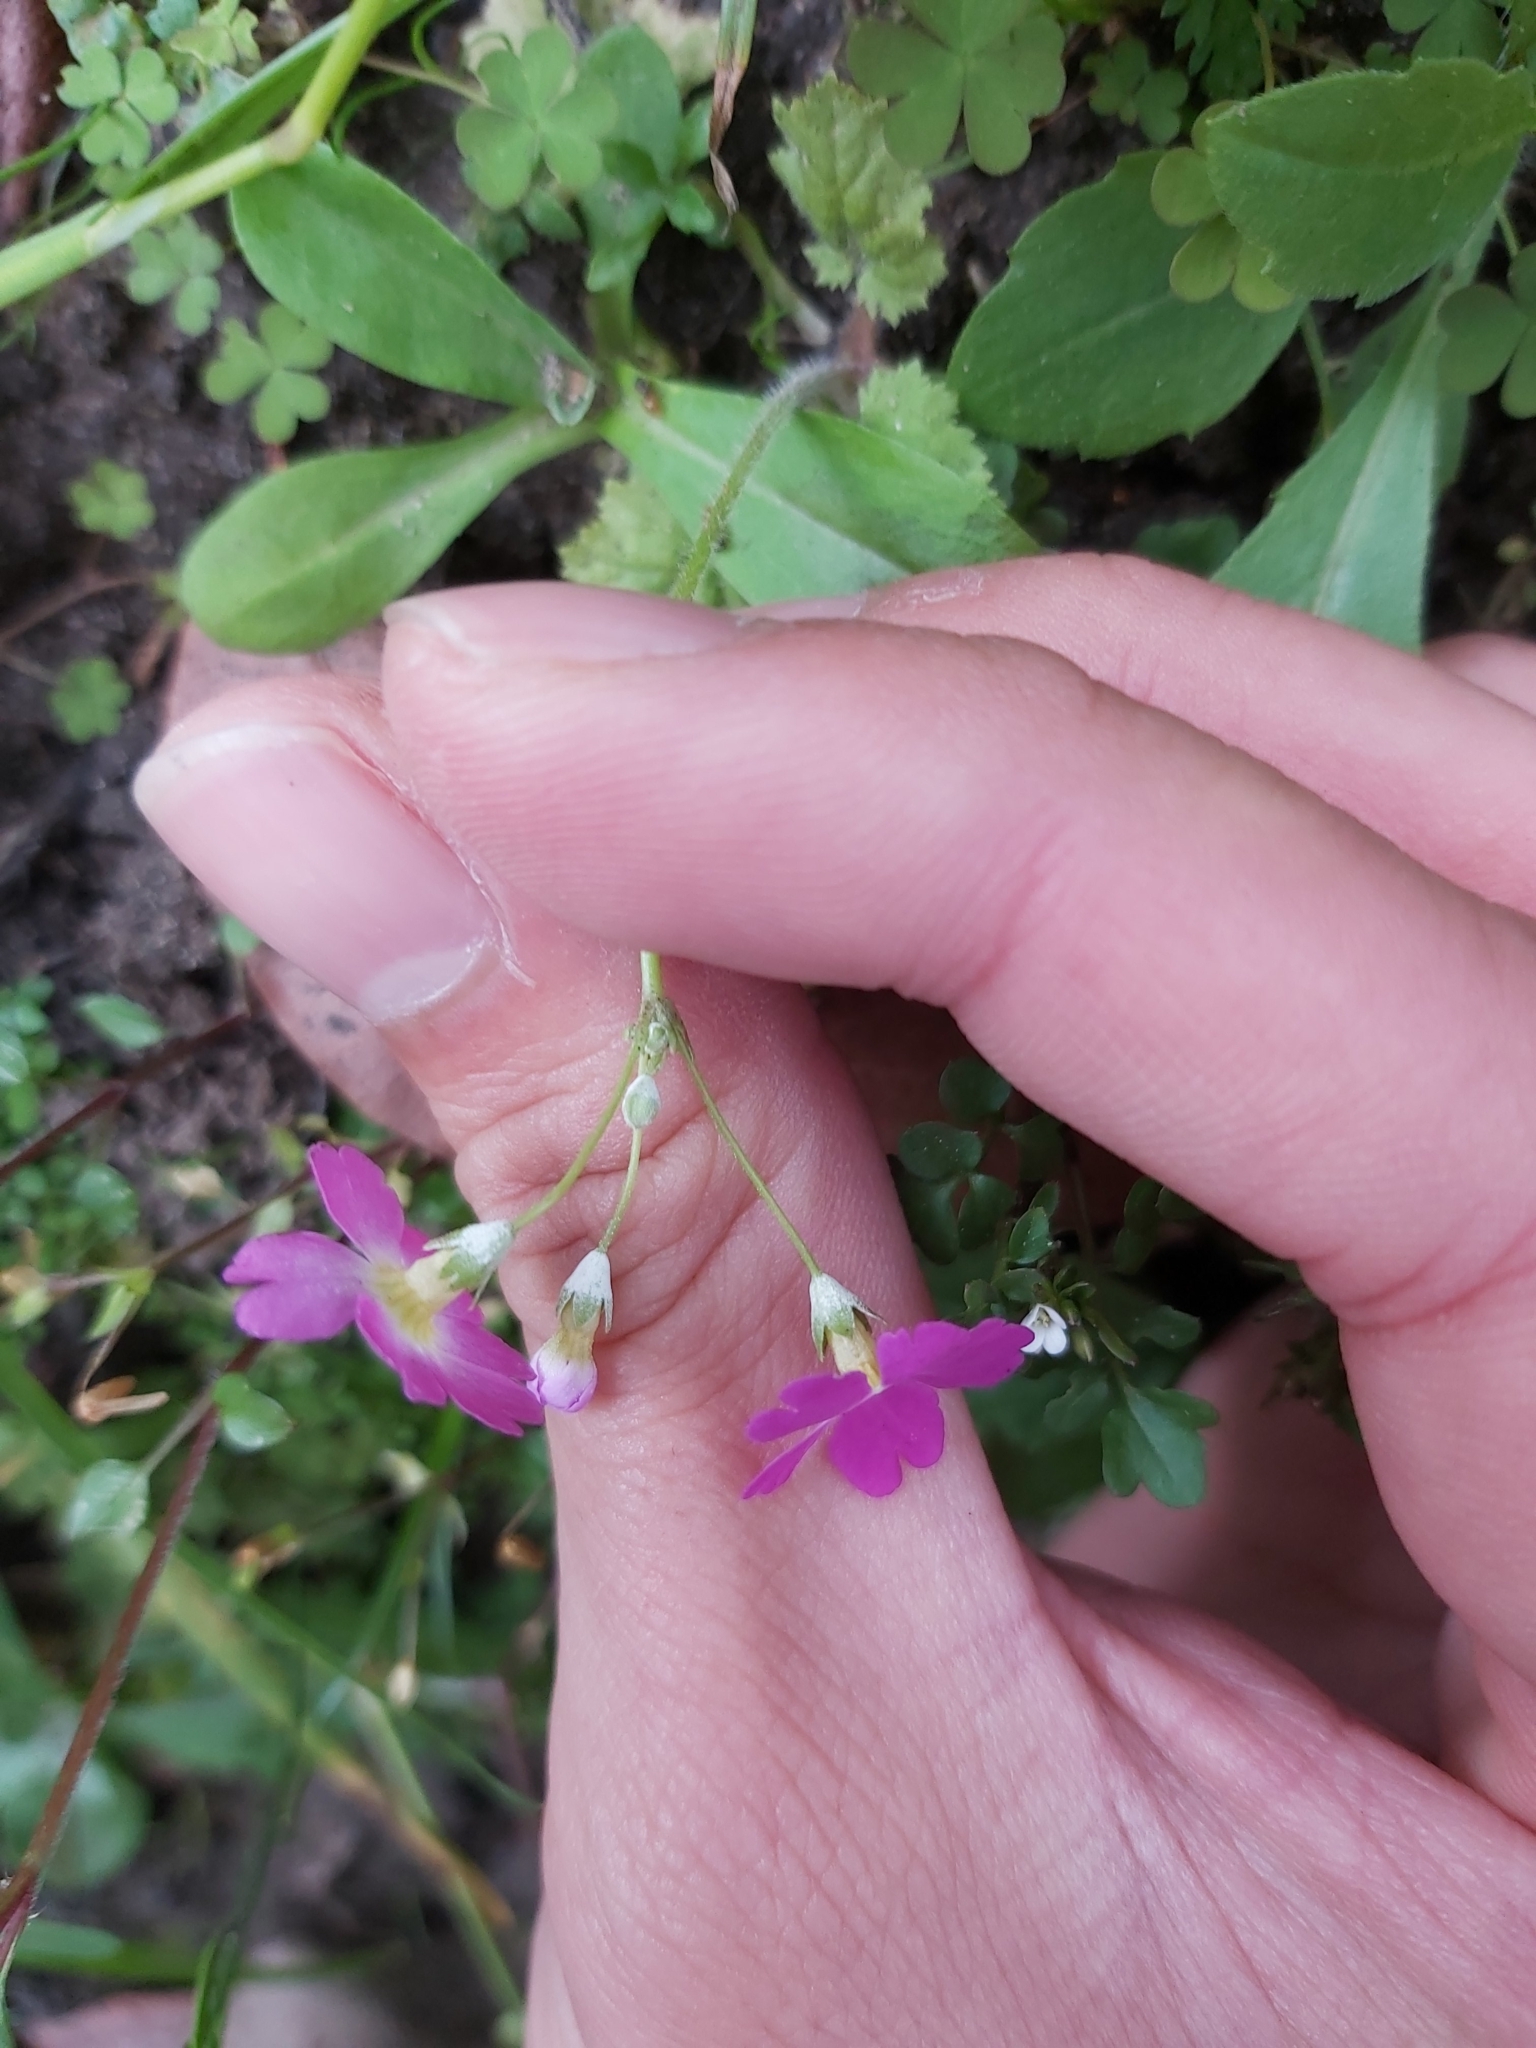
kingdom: Plantae
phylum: Tracheophyta
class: Magnoliopsida
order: Ericales
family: Primulaceae
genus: Primula
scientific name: Primula malacoides
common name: Baby primrose
